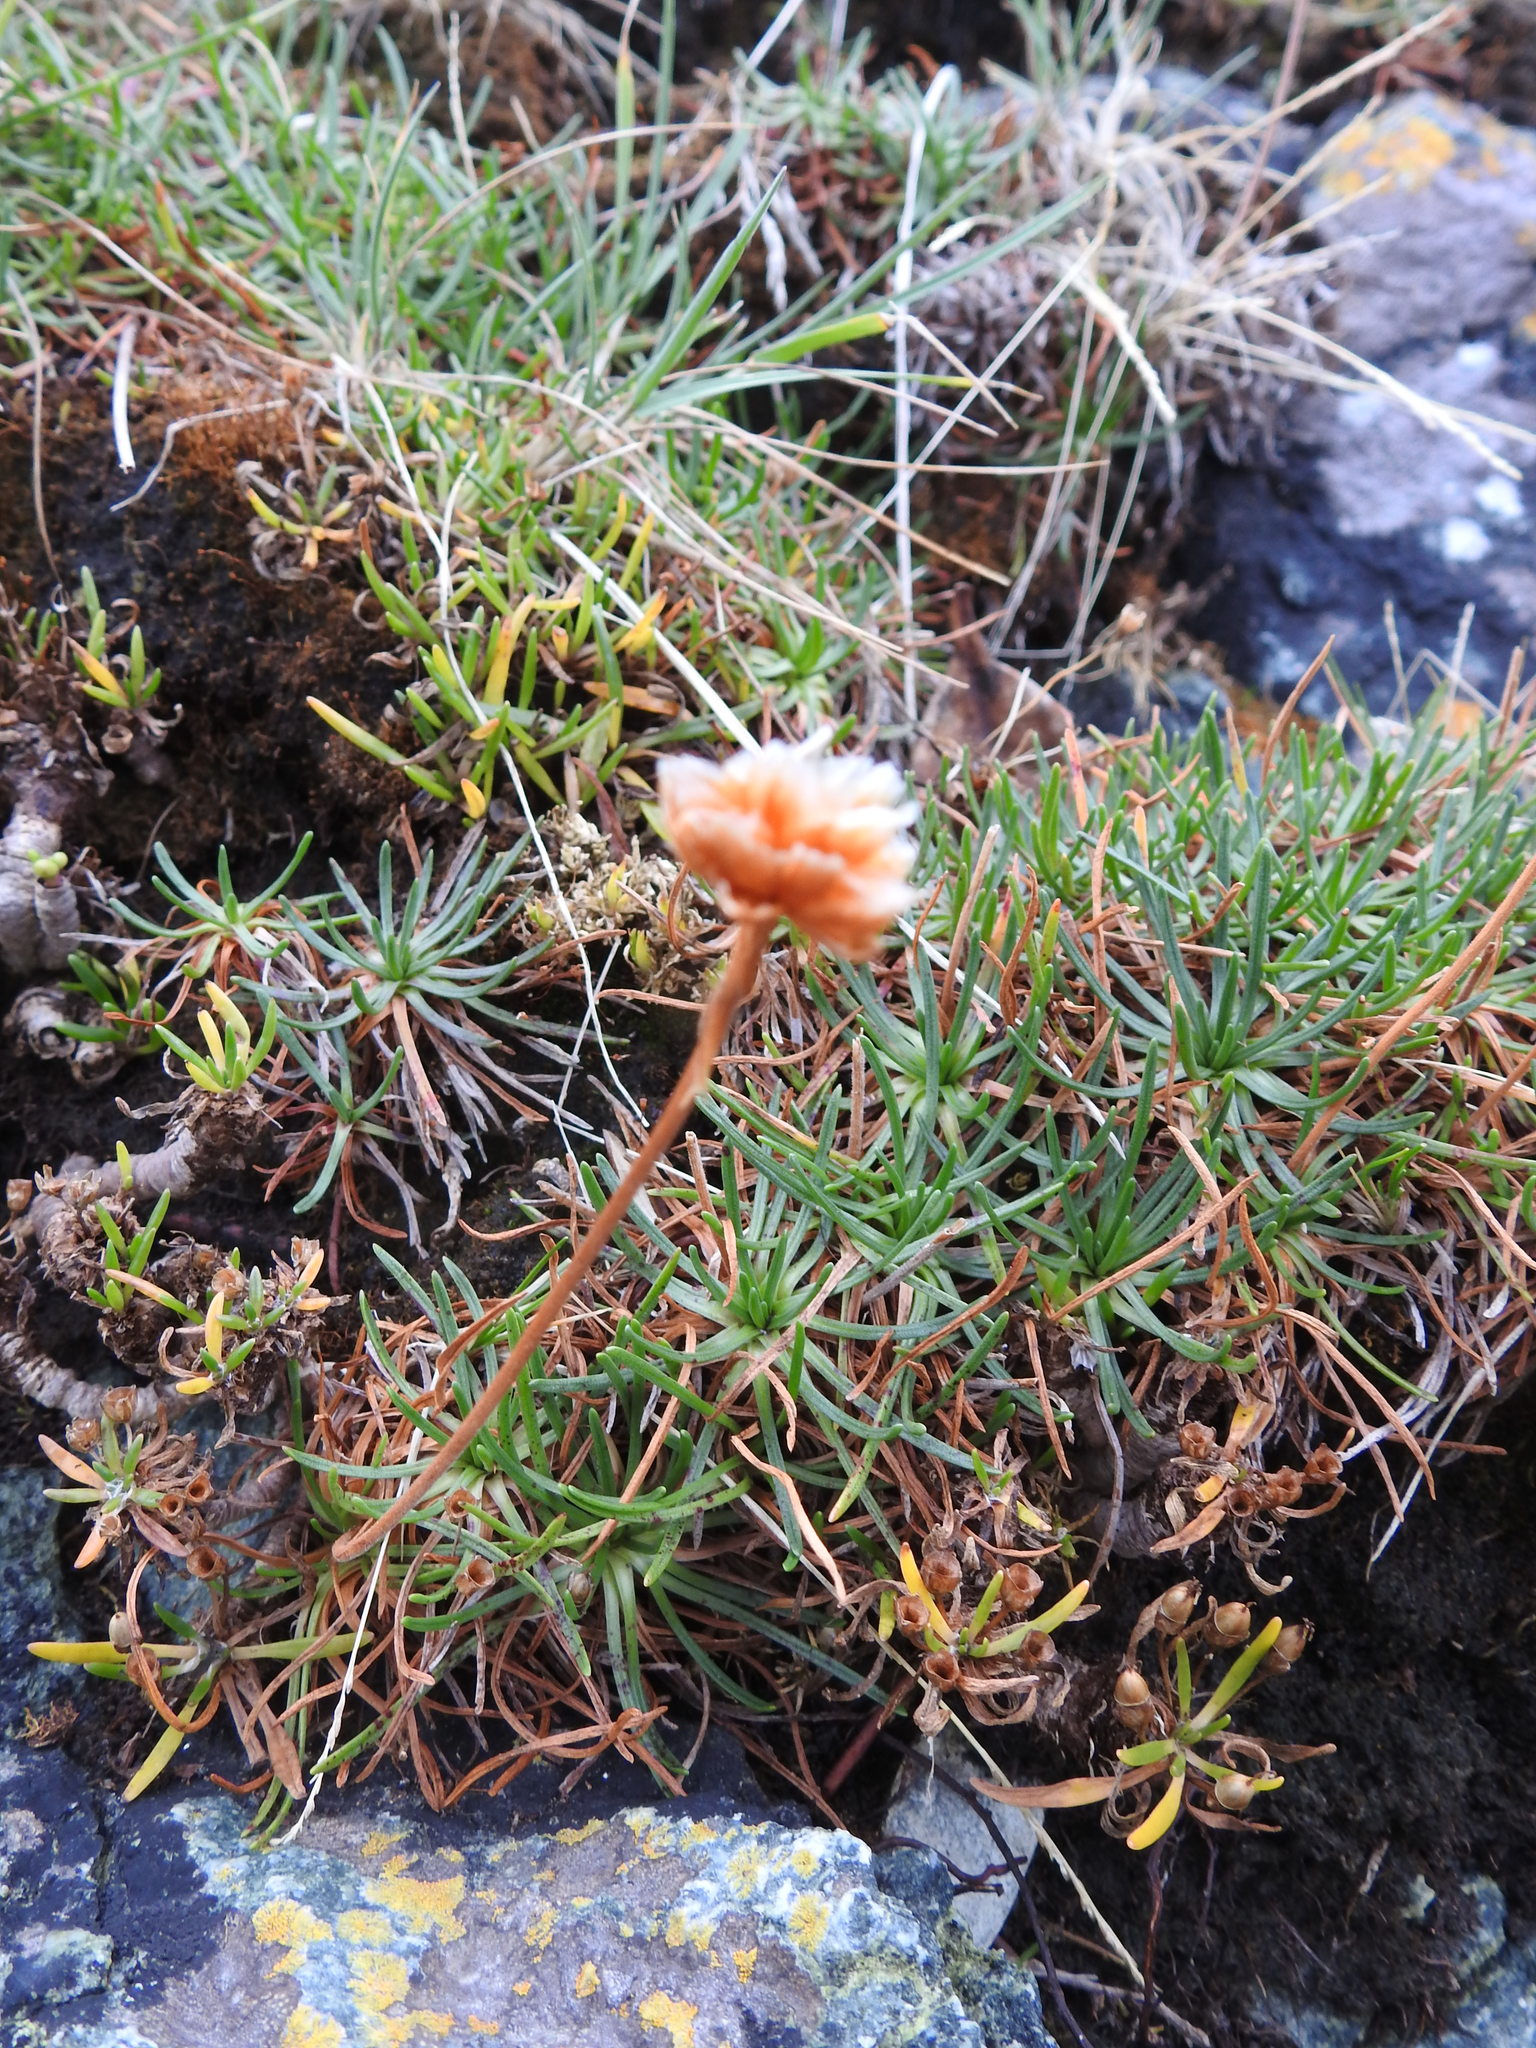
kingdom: Plantae
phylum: Tracheophyta
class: Magnoliopsida
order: Caryophyllales
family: Plumbaginaceae
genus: Armeria
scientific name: Armeria curvifolia
